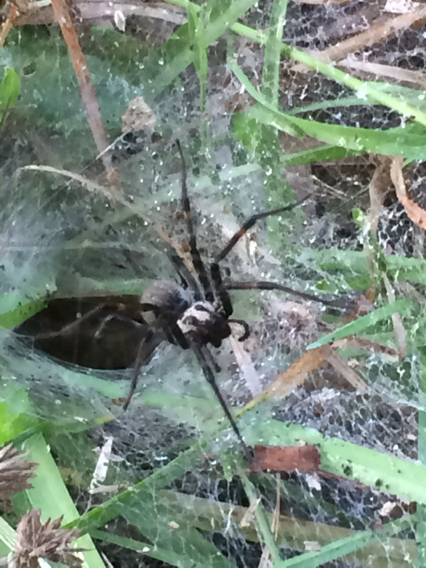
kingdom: Animalia
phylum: Arthropoda
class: Arachnida
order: Araneae
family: Agelenidae
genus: Agelenopsis
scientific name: Agelenopsis
